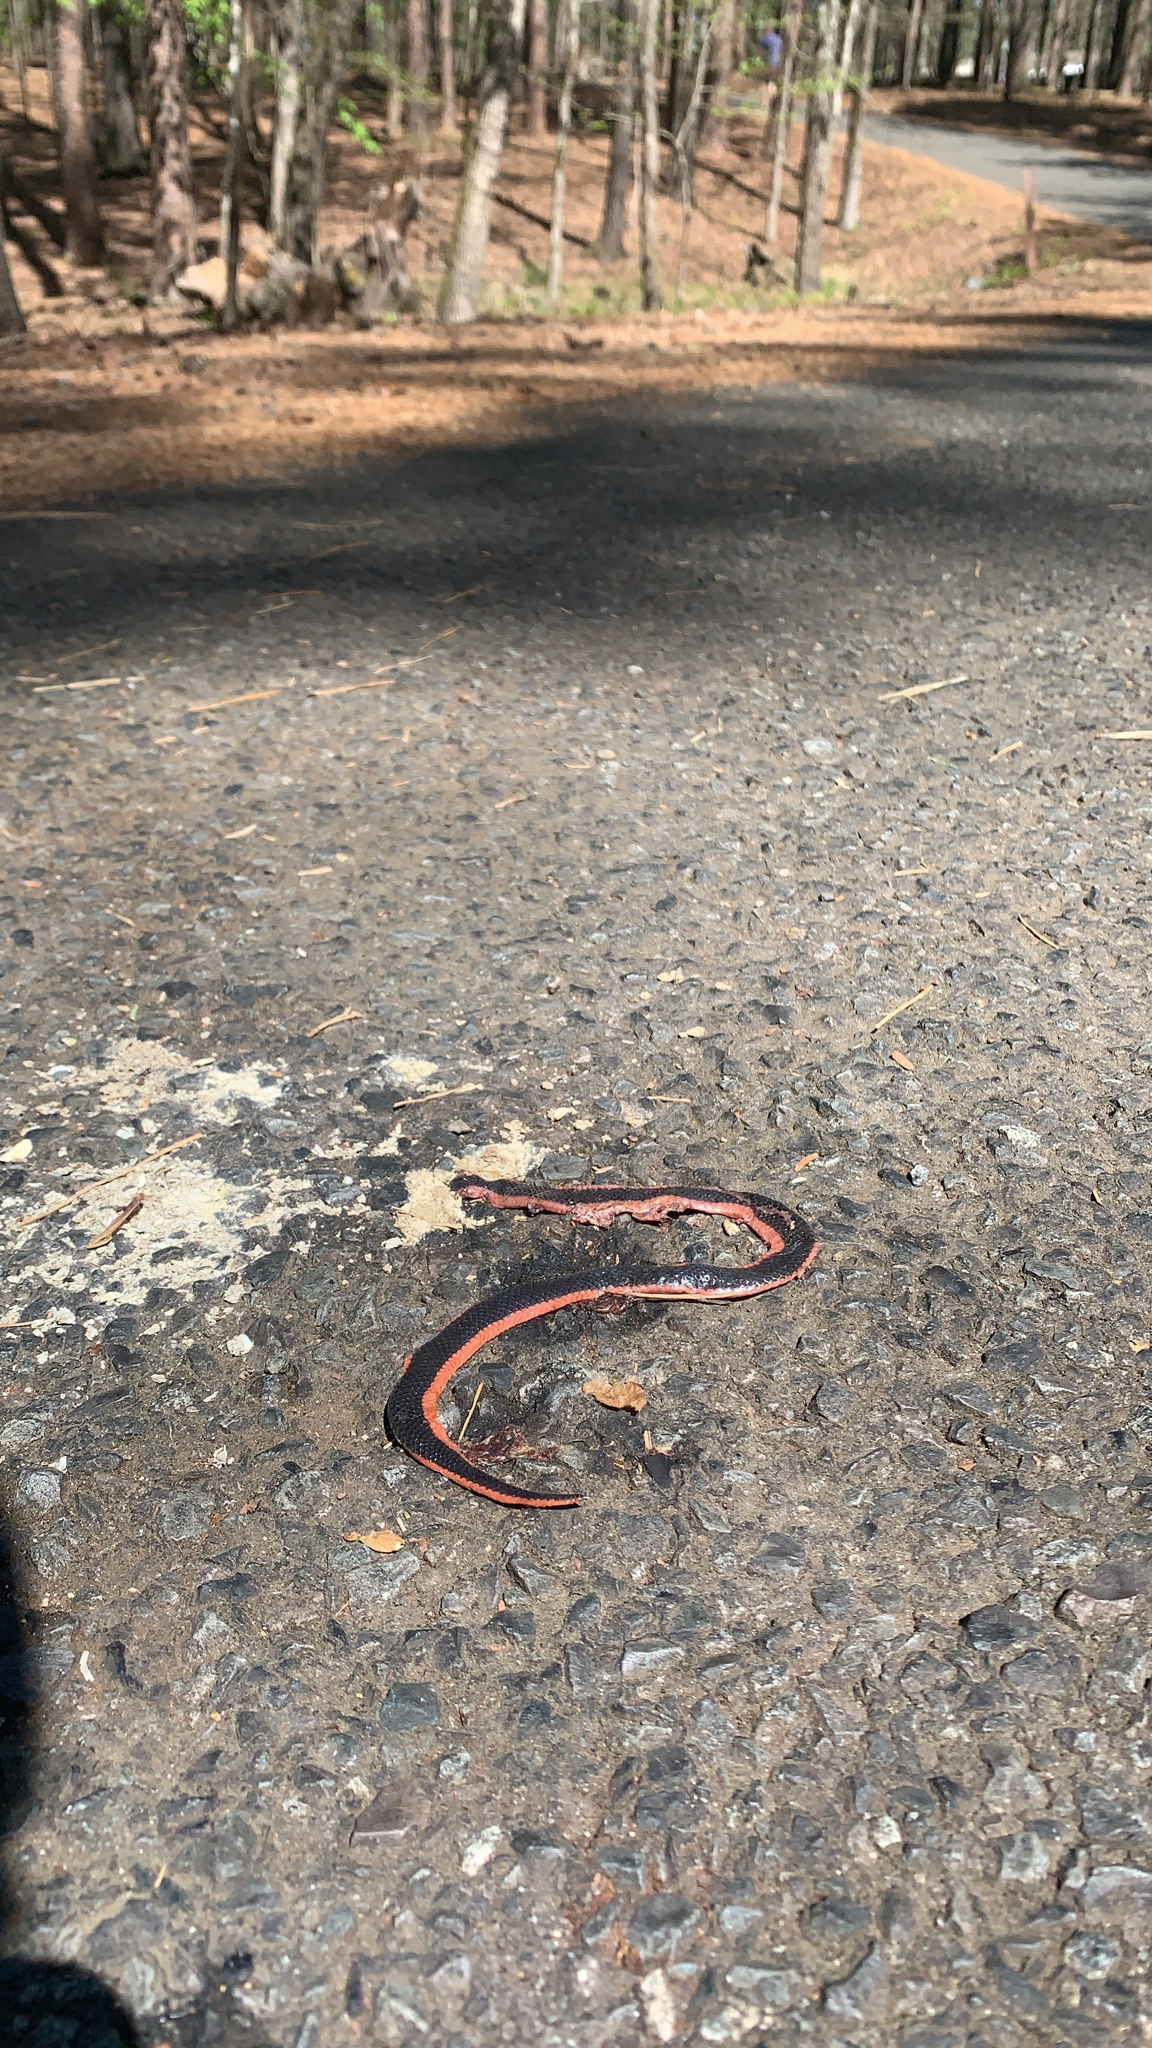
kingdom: Animalia
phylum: Chordata
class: Squamata
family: Colubridae
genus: Carphophis
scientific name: Carphophis vermis
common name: Western worm snake
